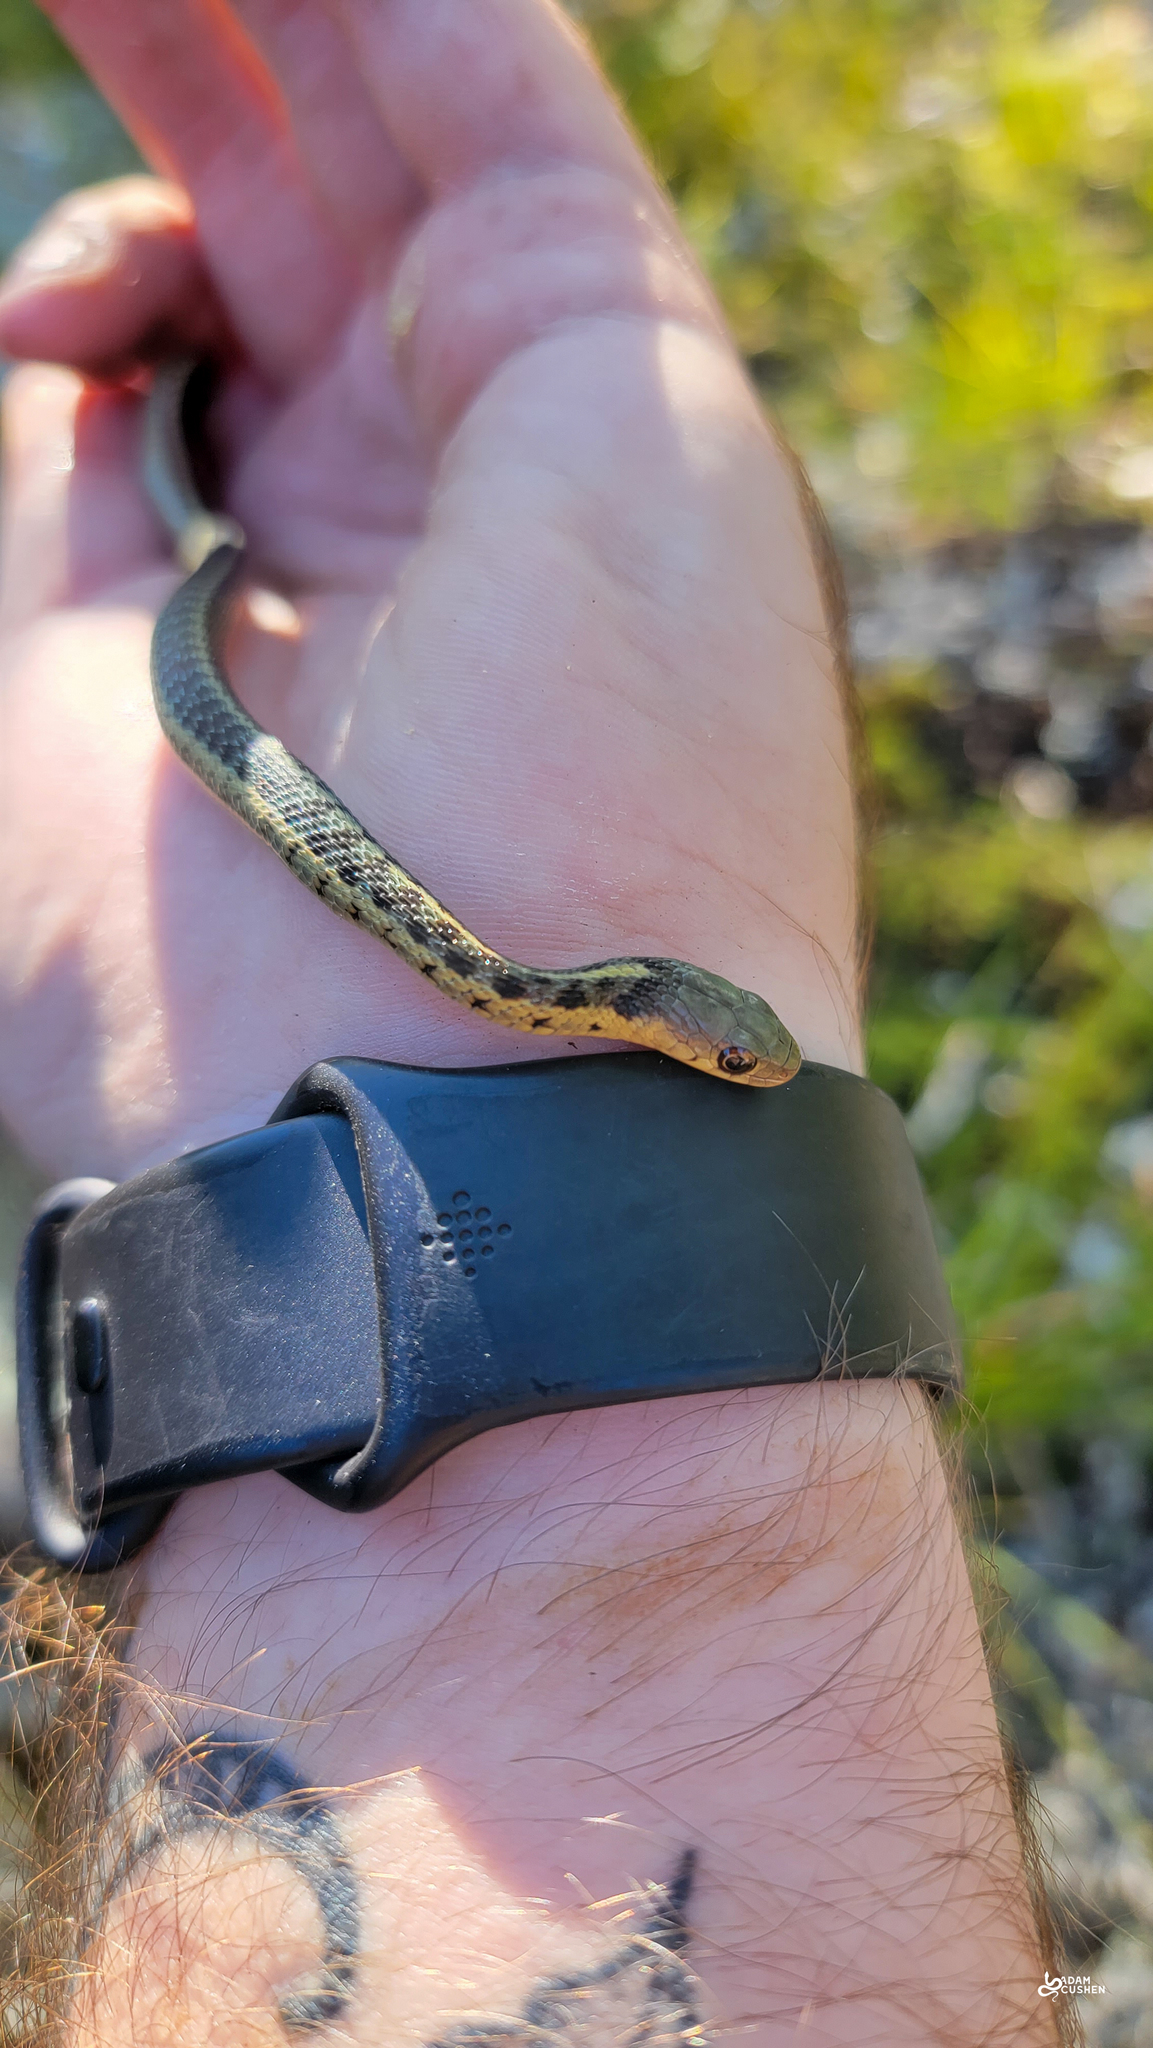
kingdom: Animalia
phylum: Chordata
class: Squamata
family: Colubridae
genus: Thamnophis
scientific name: Thamnophis sirtalis
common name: Common garter snake
